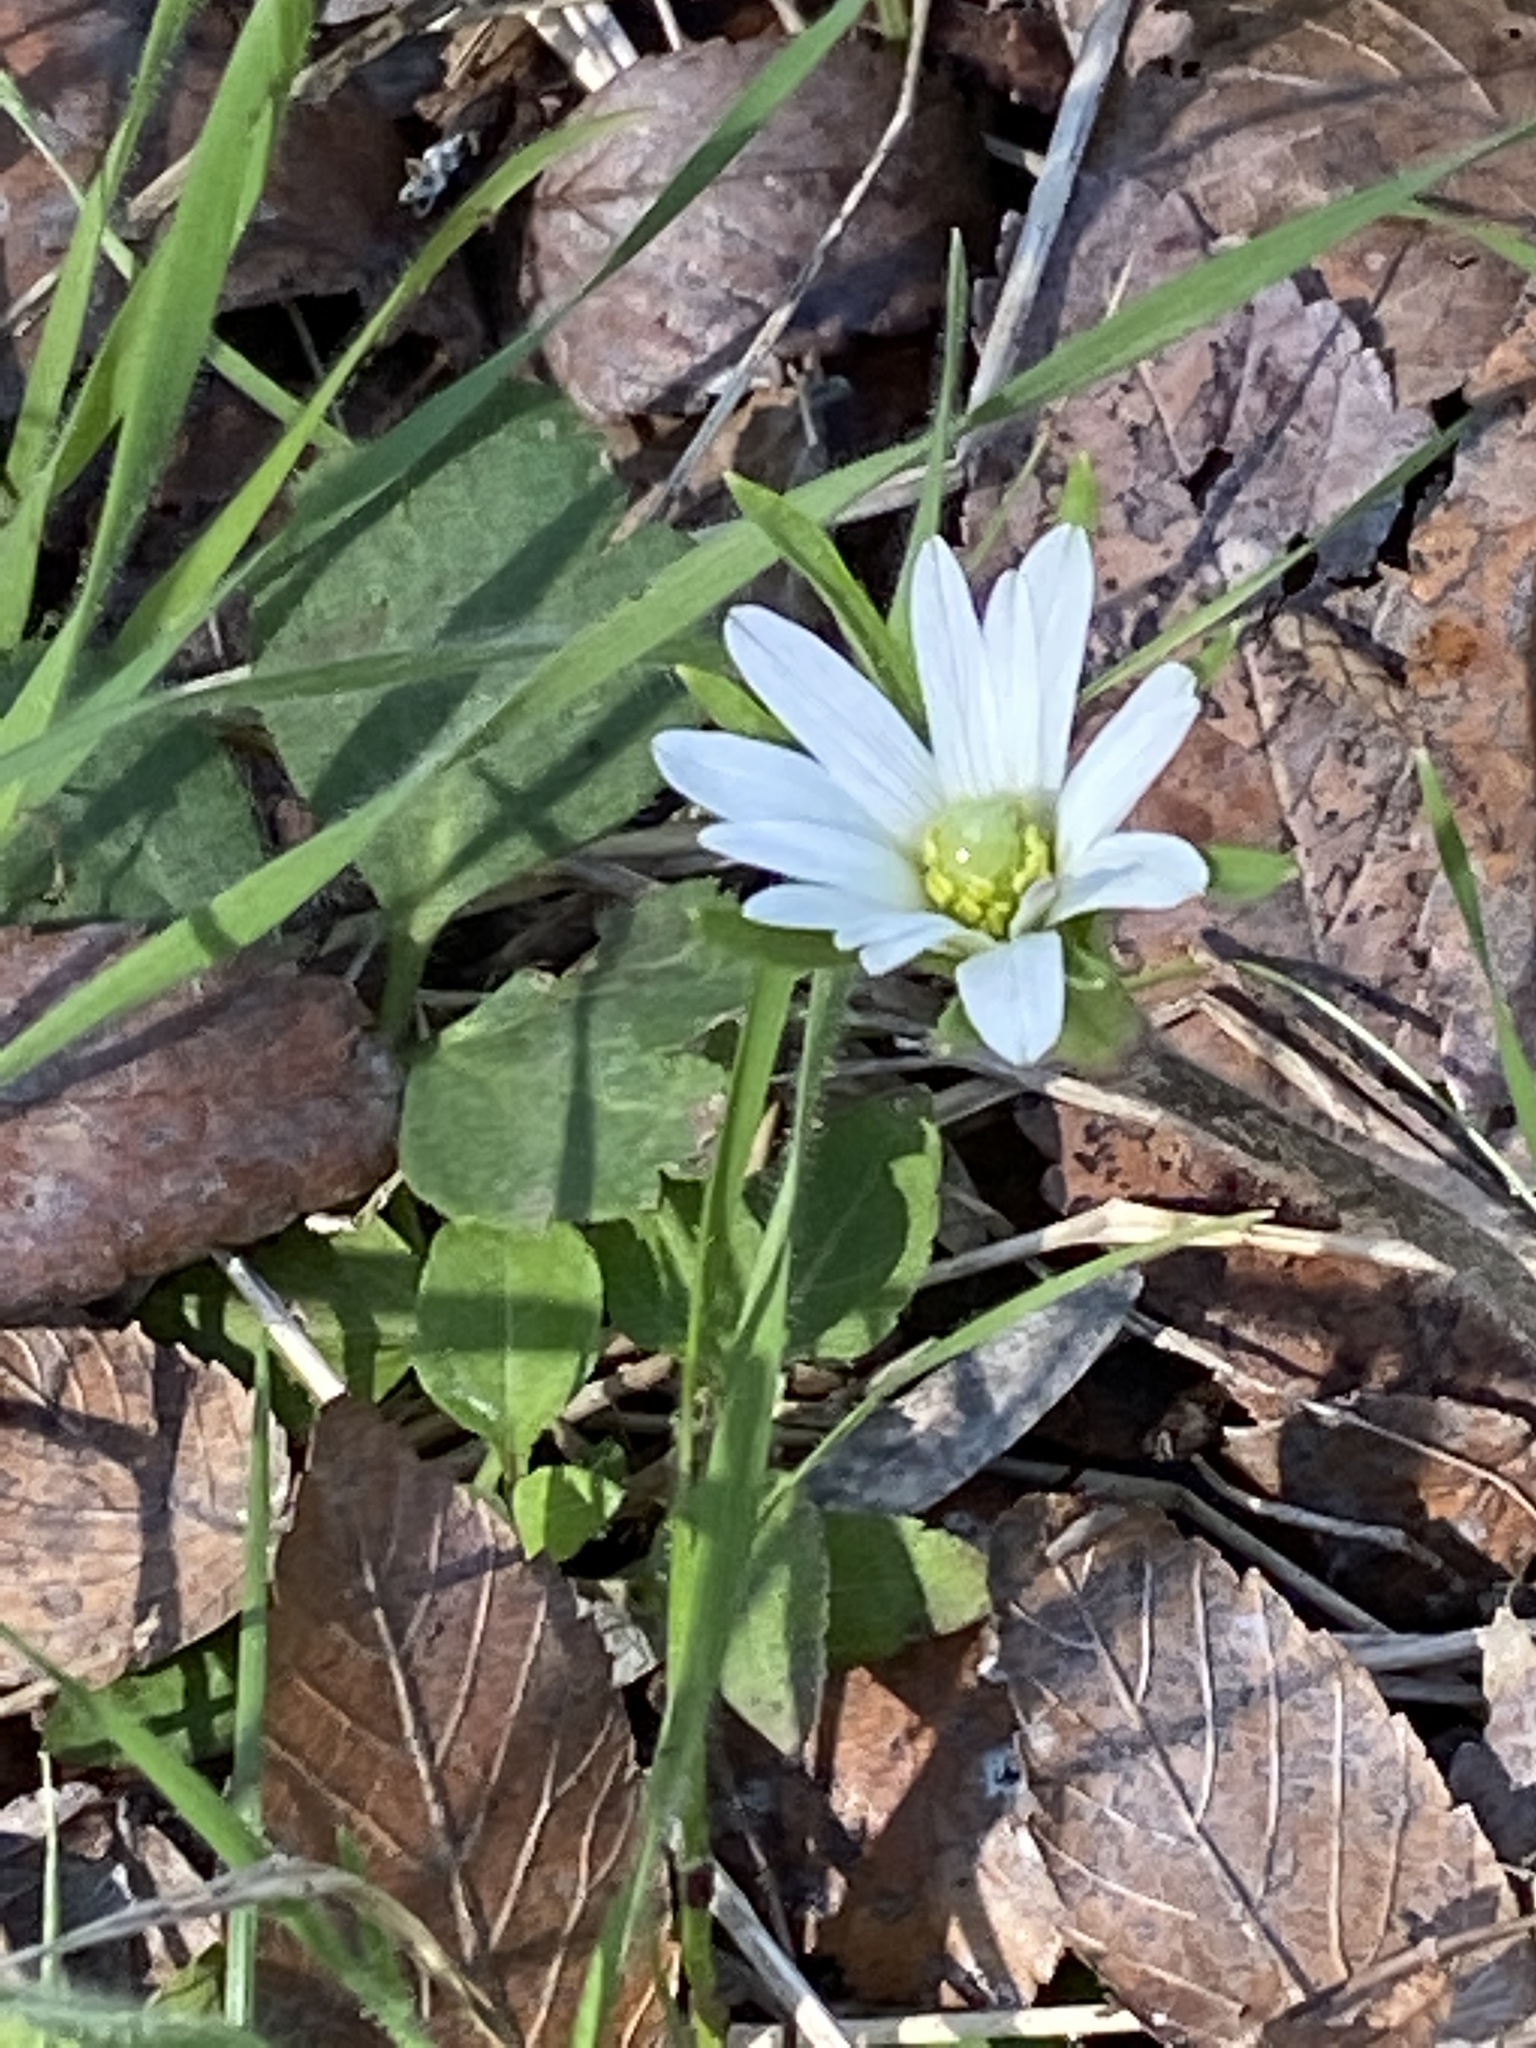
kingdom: Plantae
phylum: Tracheophyta
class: Magnoliopsida
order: Ranunculales
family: Ranunculaceae
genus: Anemone
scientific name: Anemone berlandieri
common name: Ten-petal anemone
